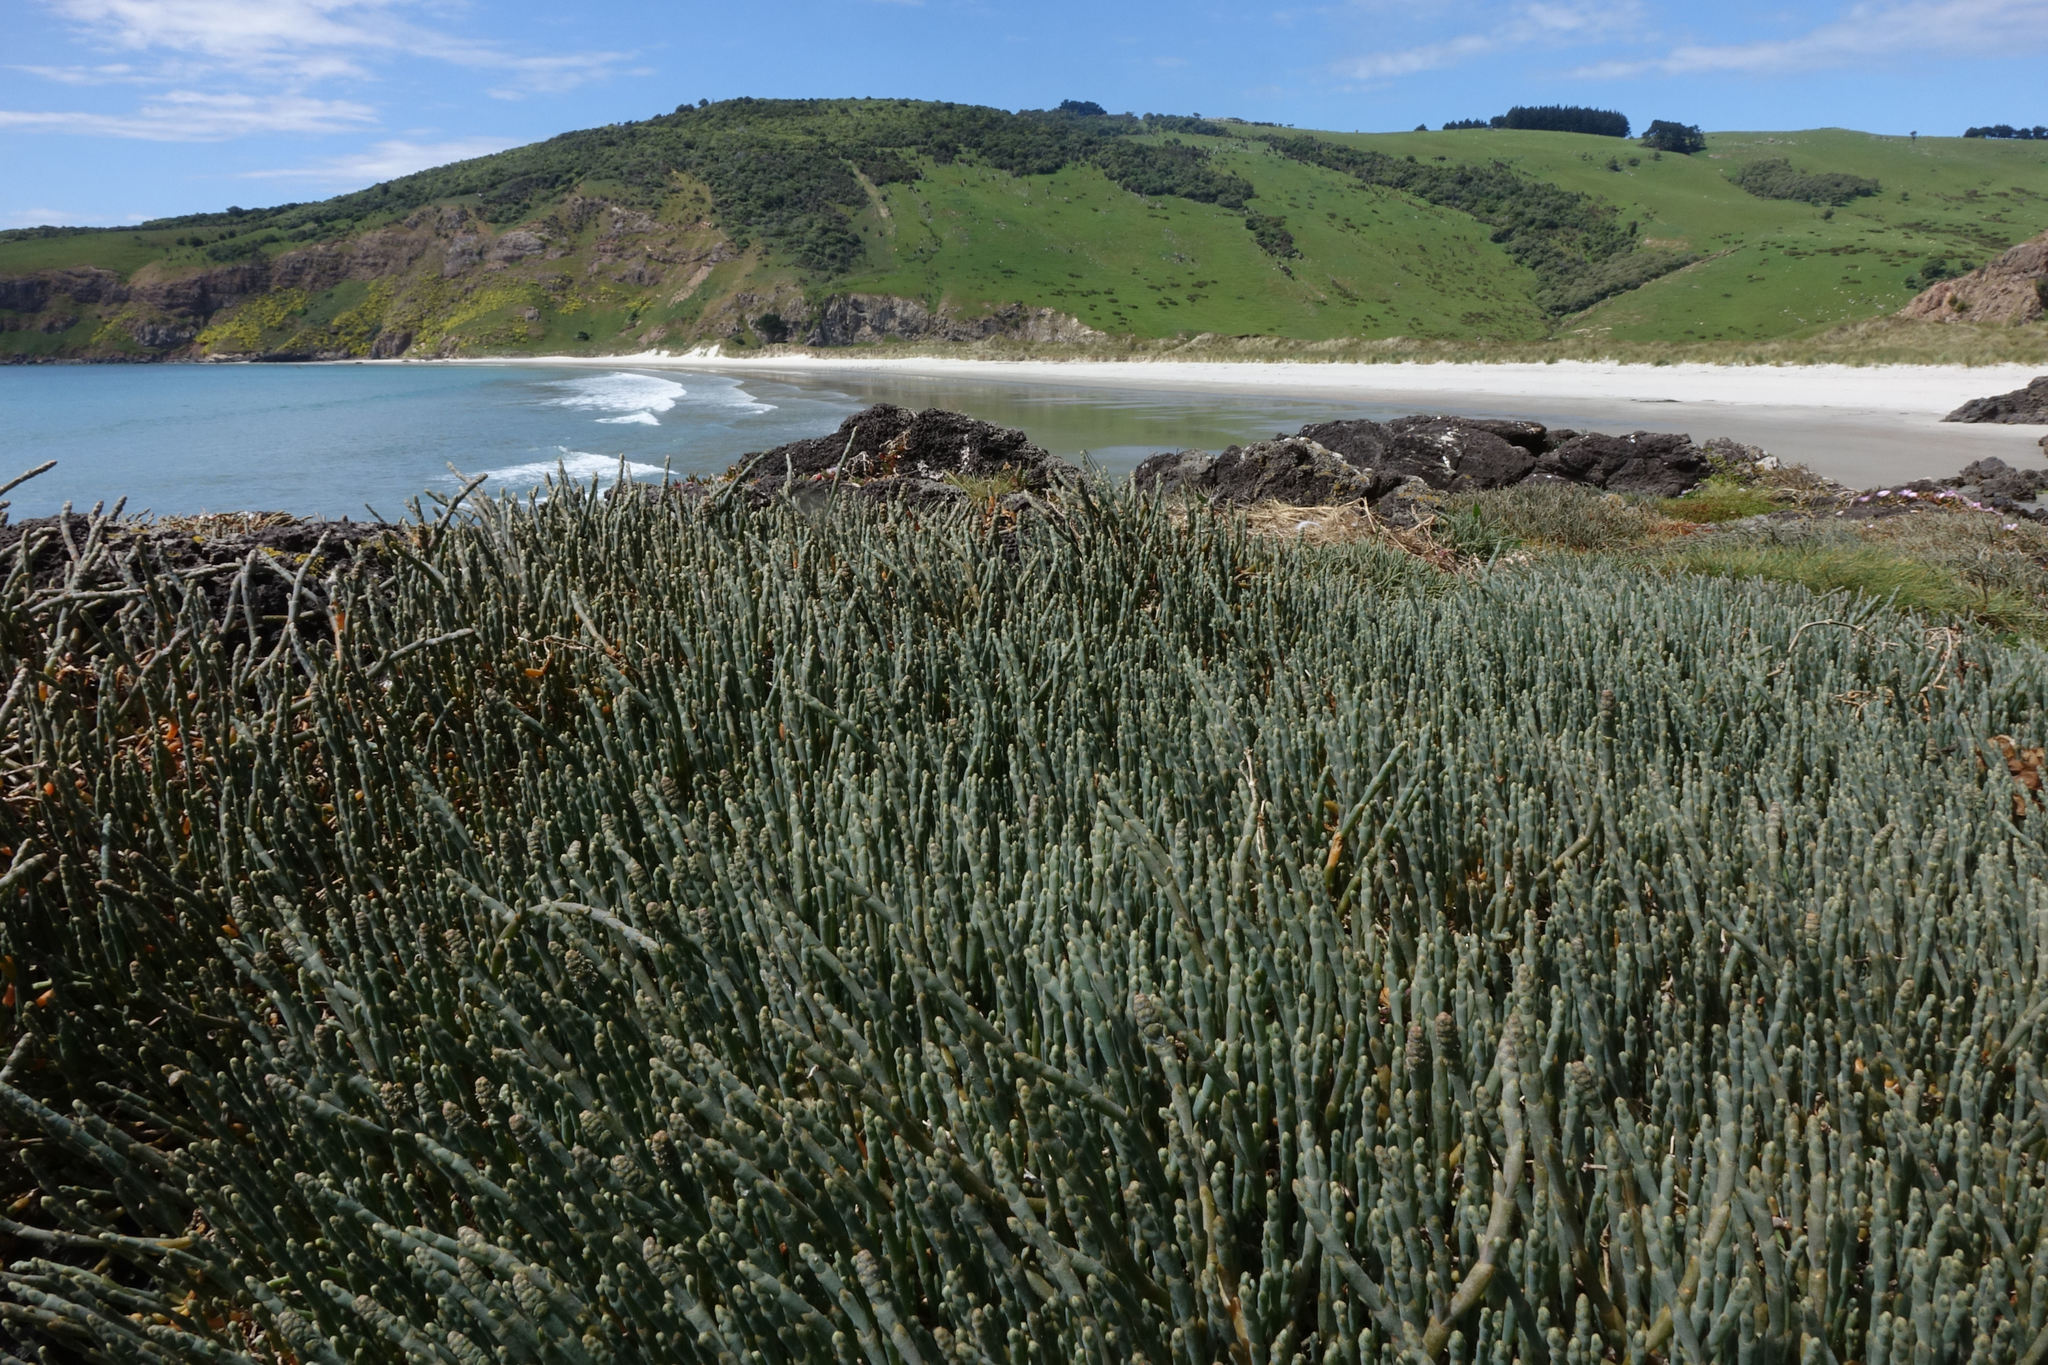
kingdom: Plantae
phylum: Tracheophyta
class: Magnoliopsida
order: Caryophyllales
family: Amaranthaceae
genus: Salicornia
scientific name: Salicornia quinqueflora
